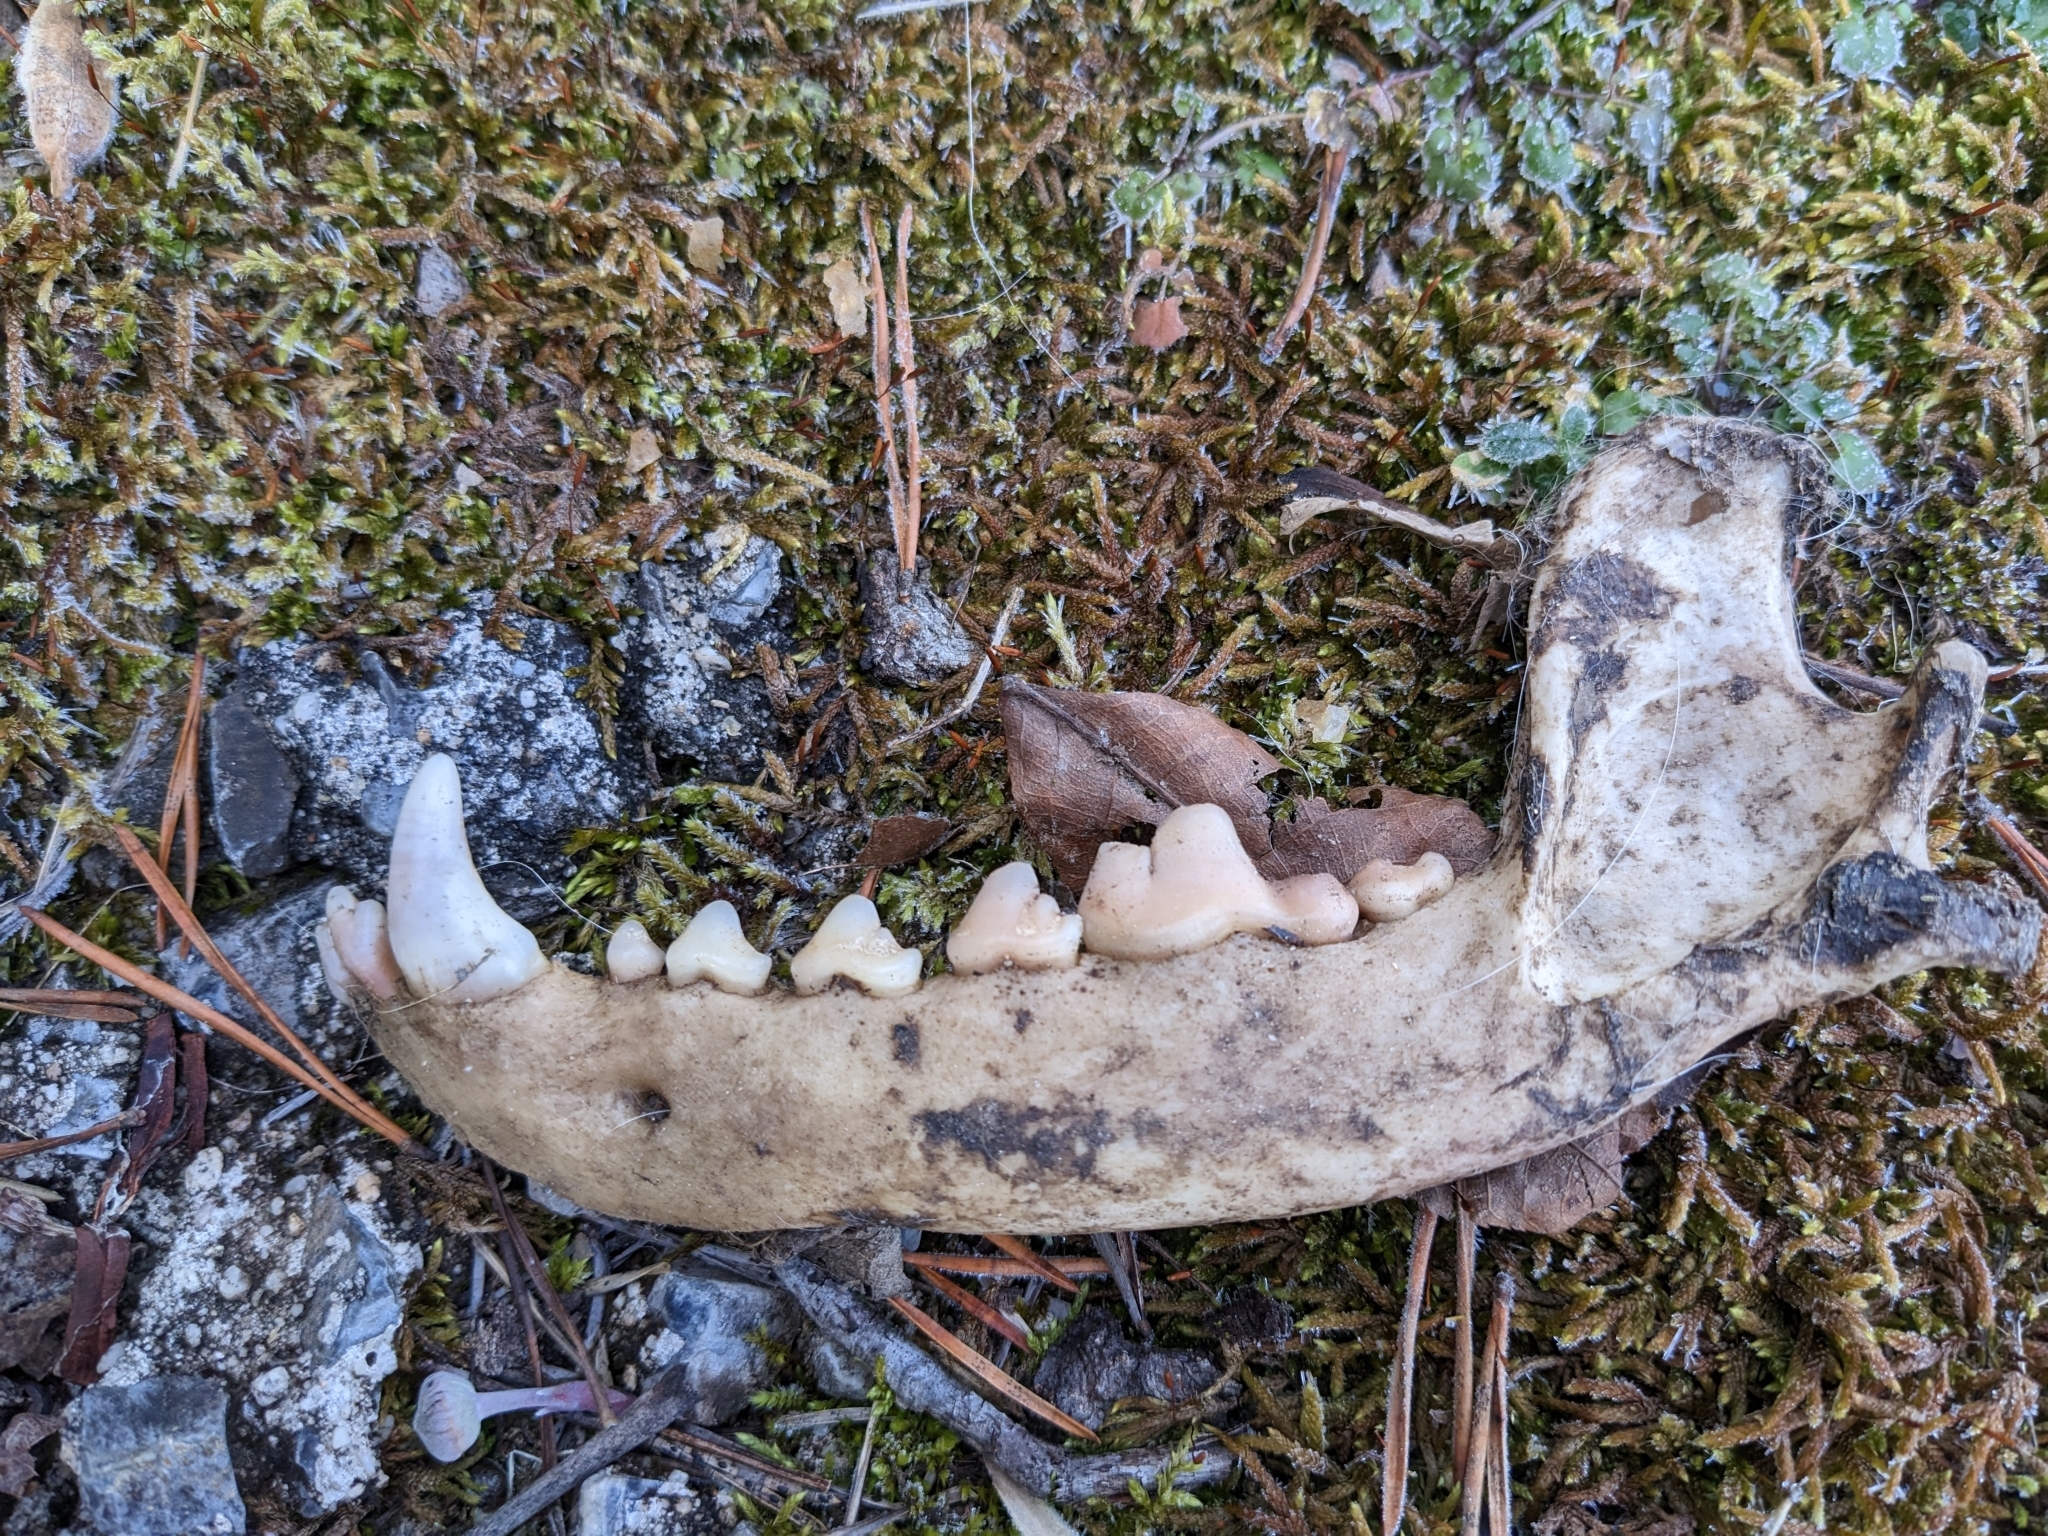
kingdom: Animalia
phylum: Chordata
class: Mammalia
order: Carnivora
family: Canidae
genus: Canis
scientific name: Canis lupus
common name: Gray wolf
